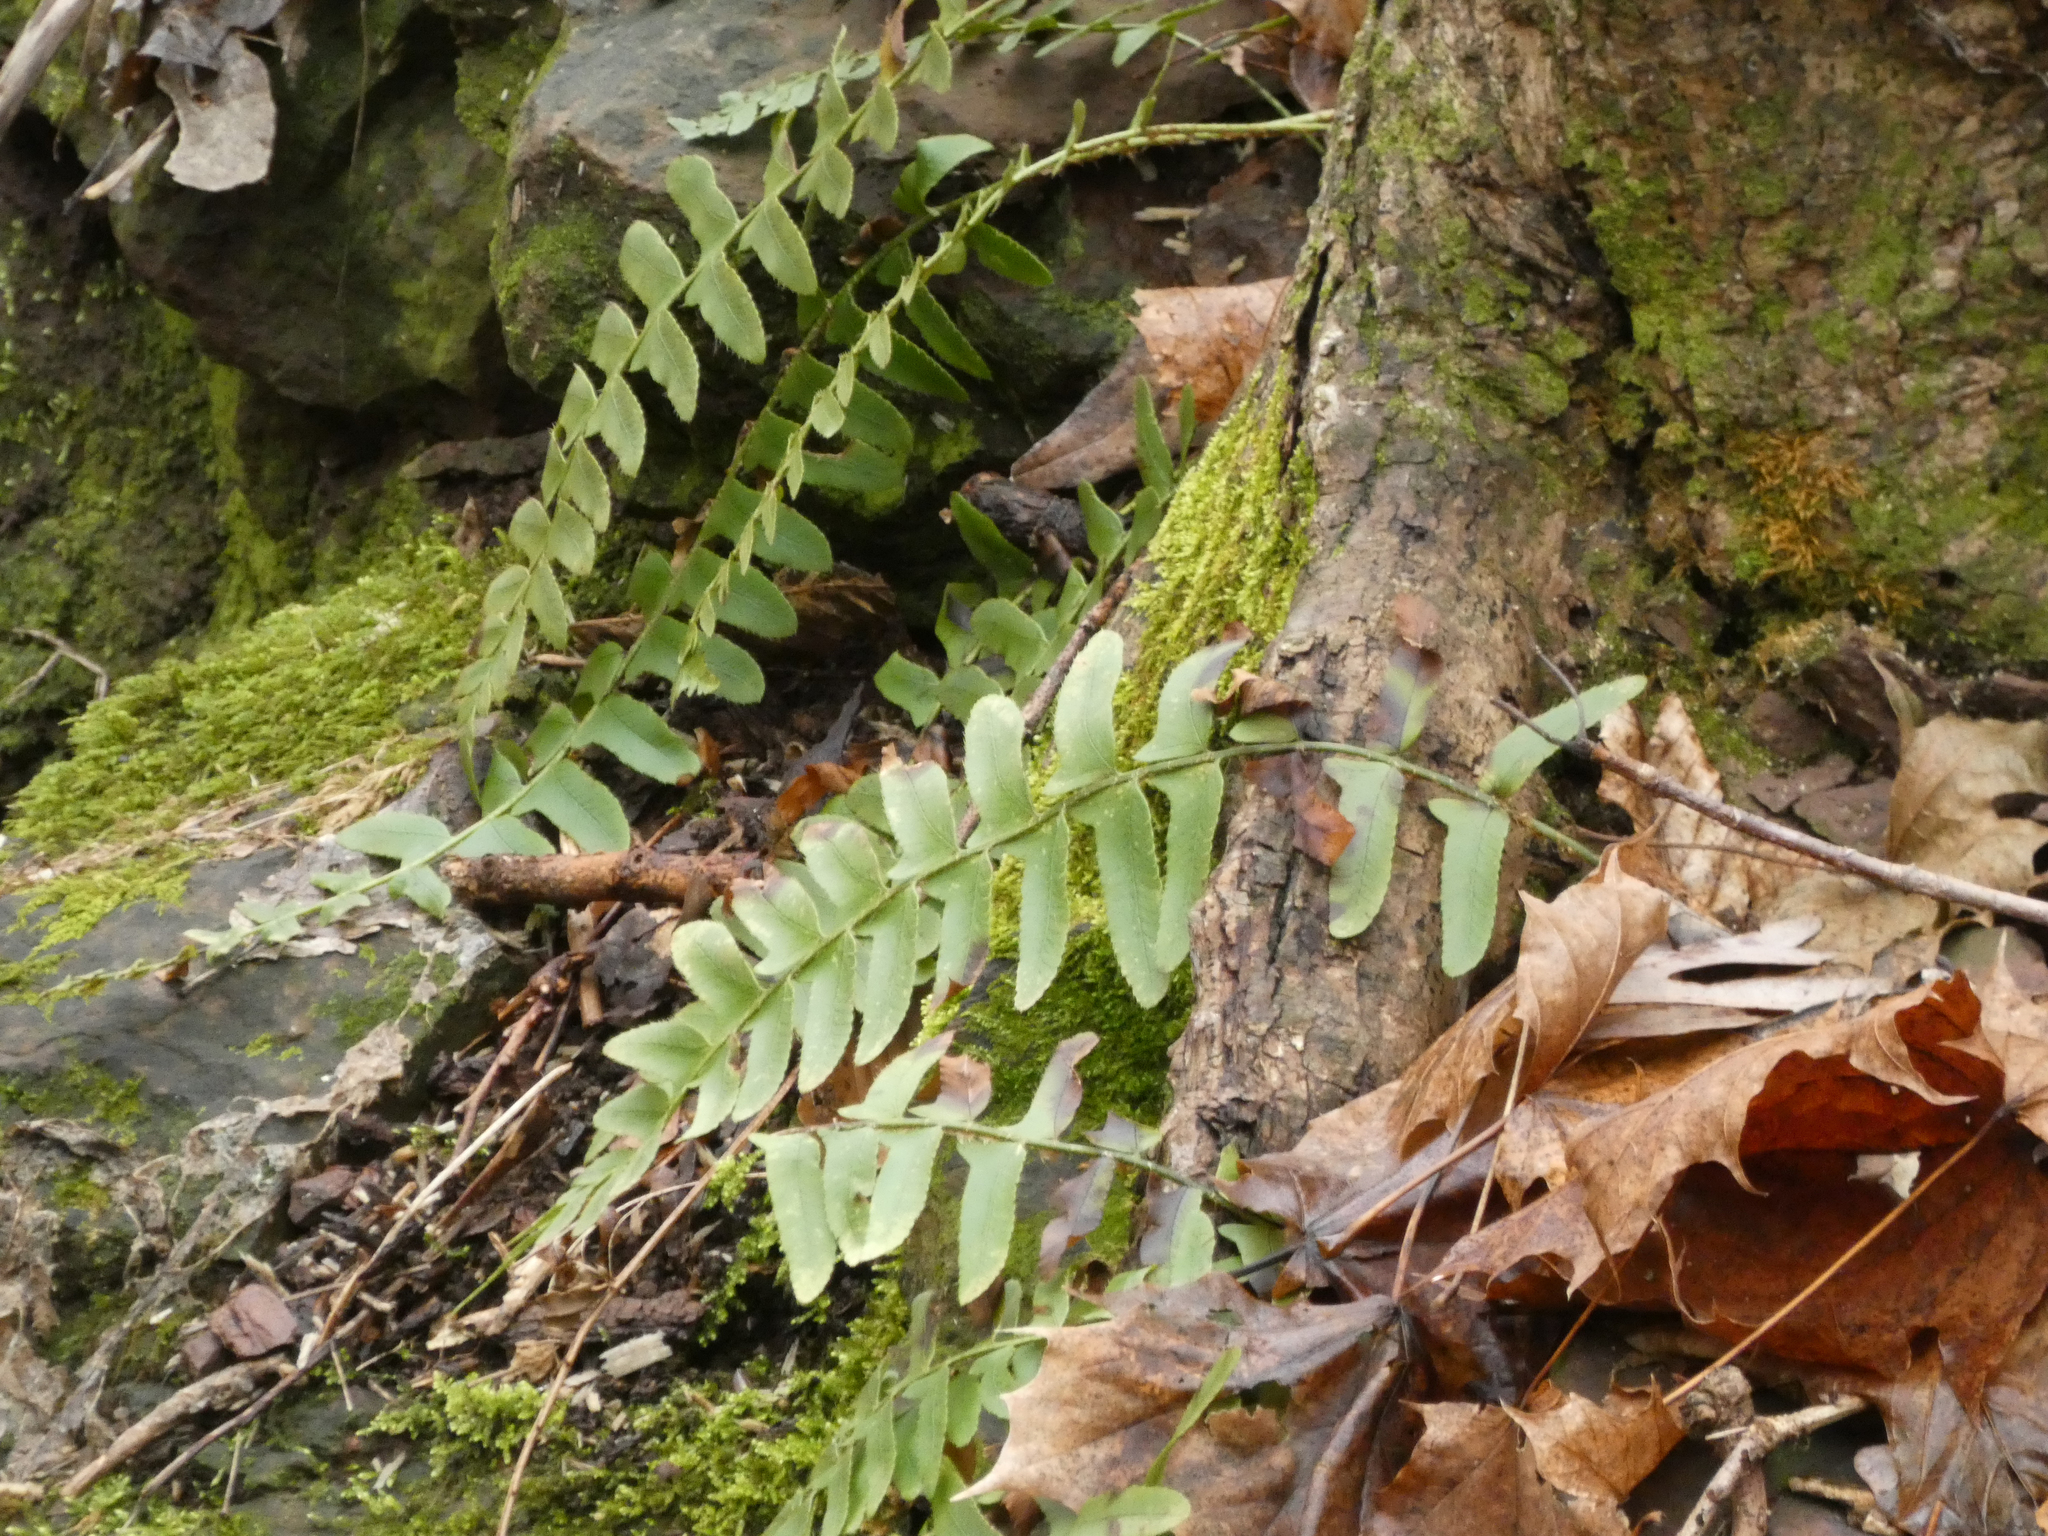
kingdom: Plantae
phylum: Tracheophyta
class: Polypodiopsida
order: Polypodiales
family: Dryopteridaceae
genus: Polystichum
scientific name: Polystichum acrostichoides
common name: Christmas fern
